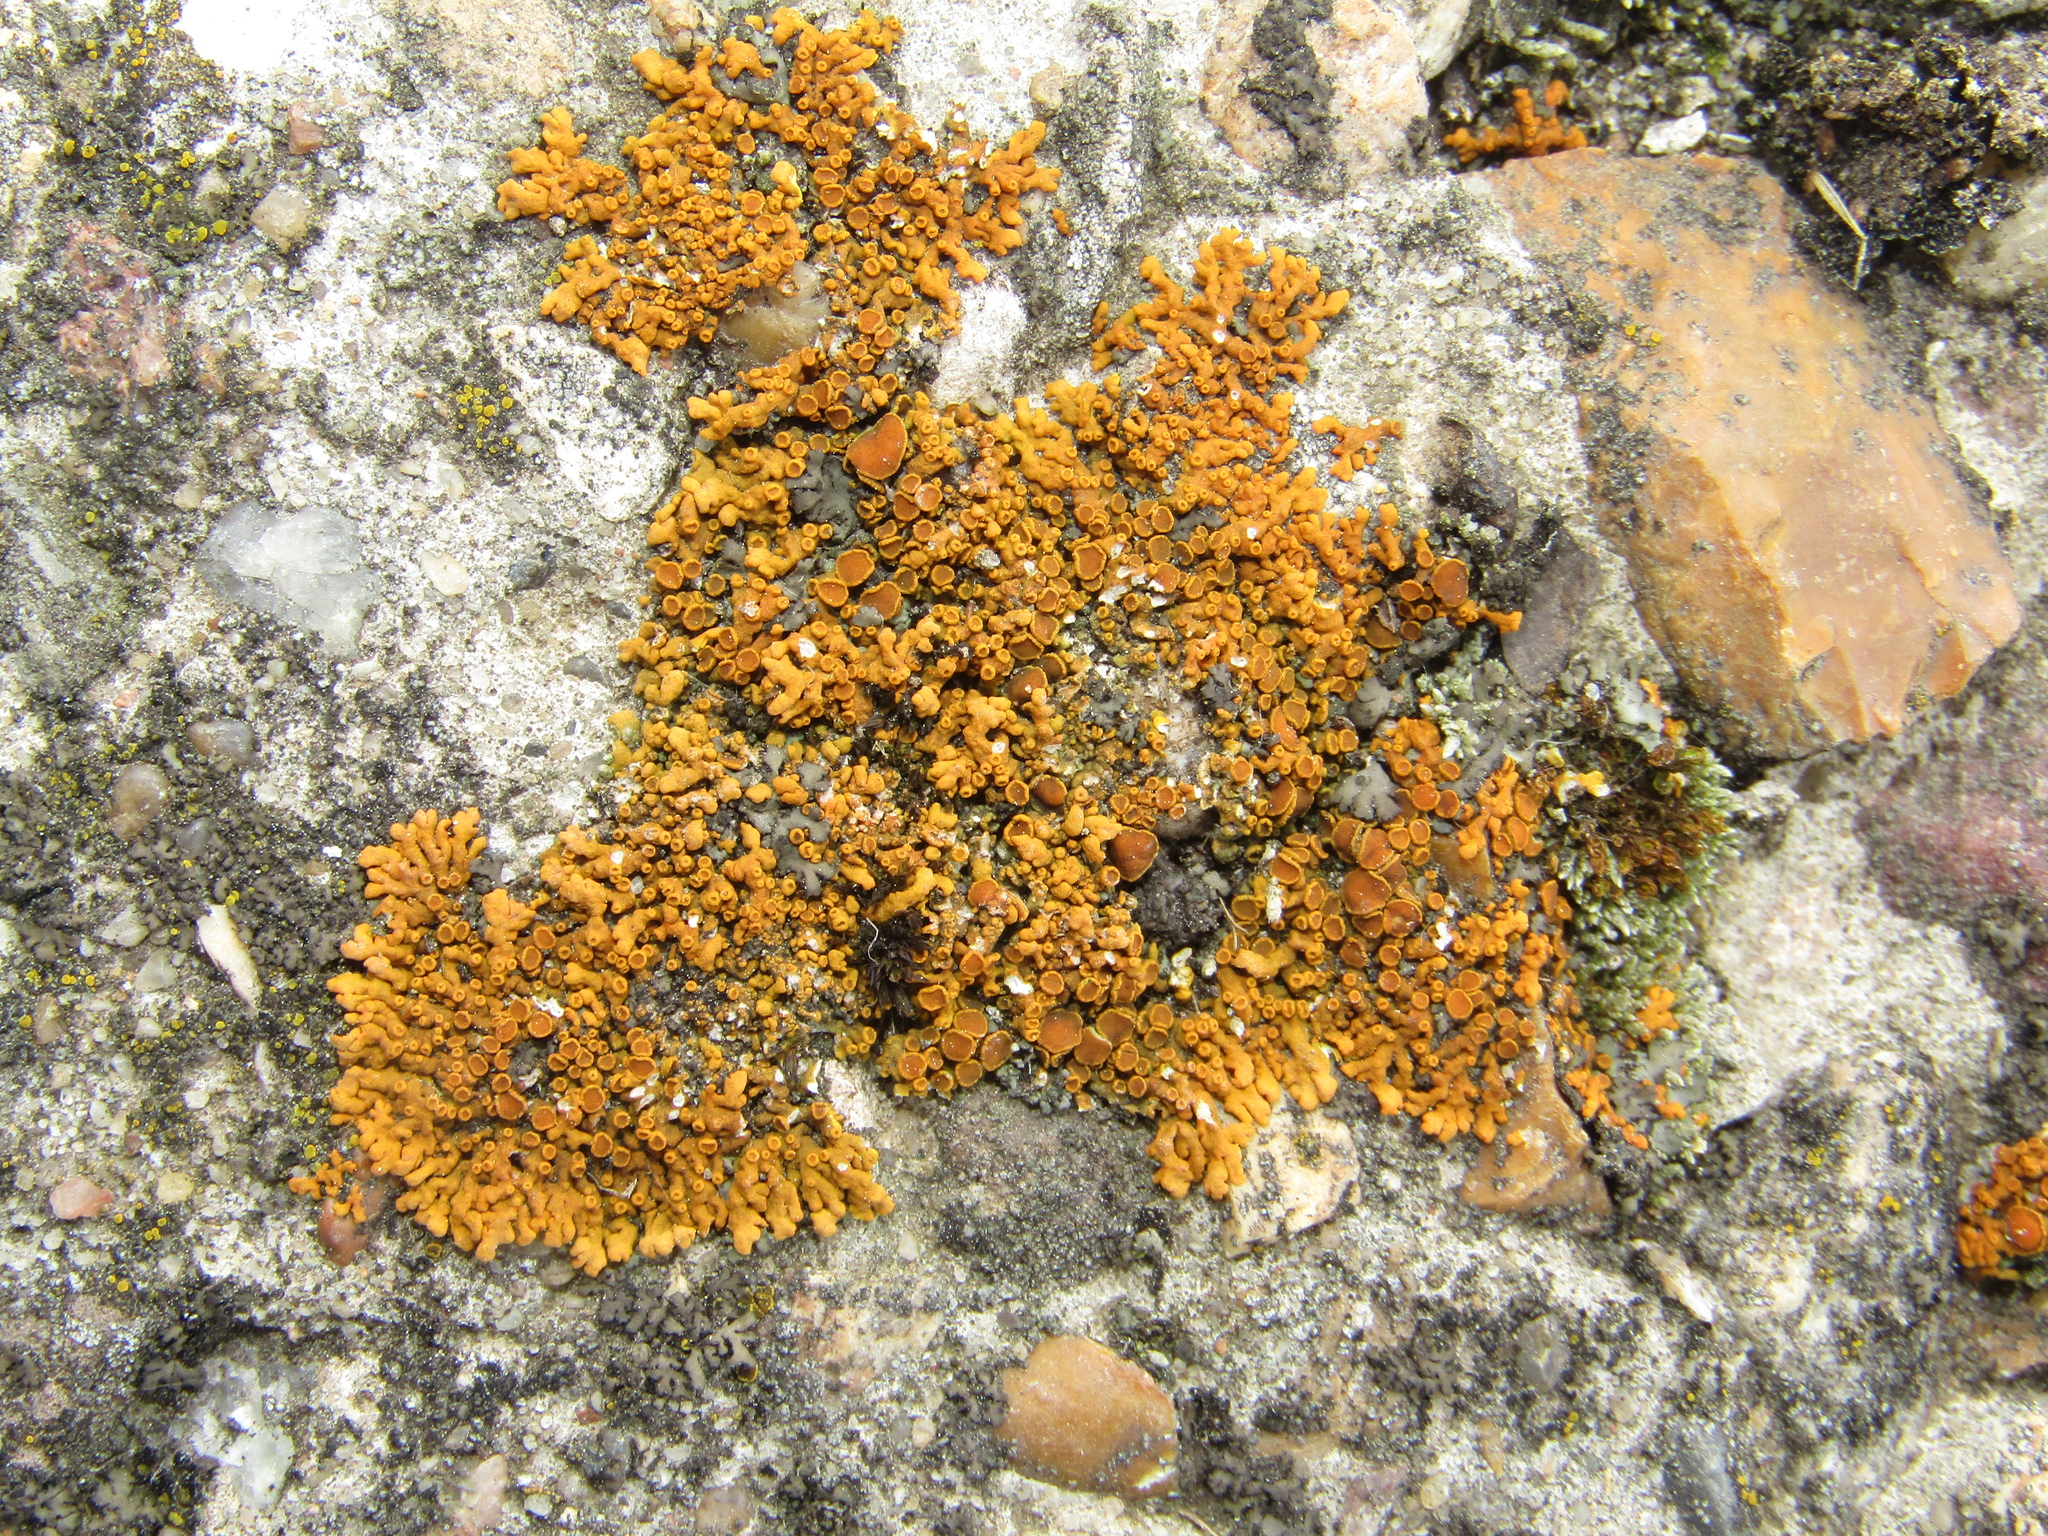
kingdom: Fungi
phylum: Ascomycota
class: Lecanoromycetes
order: Teloschistales
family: Teloschistaceae
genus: Xanthoria
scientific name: Xanthoria elegans
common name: Elegant sunburst lichen
